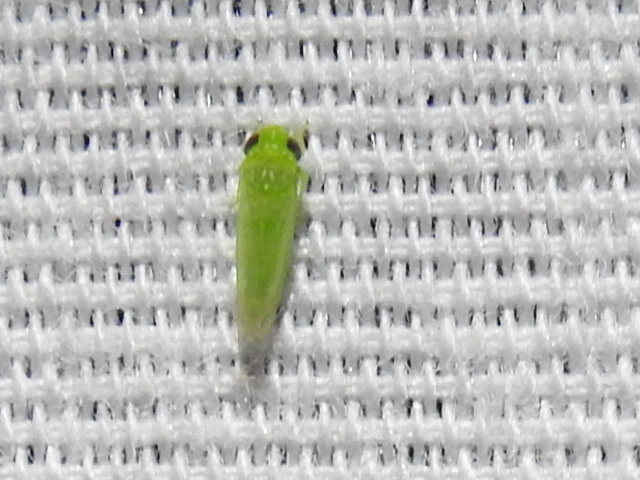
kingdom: Animalia
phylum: Arthropoda
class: Insecta
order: Hemiptera
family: Cicadellidae
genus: Empoasca
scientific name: Empoasca fabae
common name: Potato leafhopper
